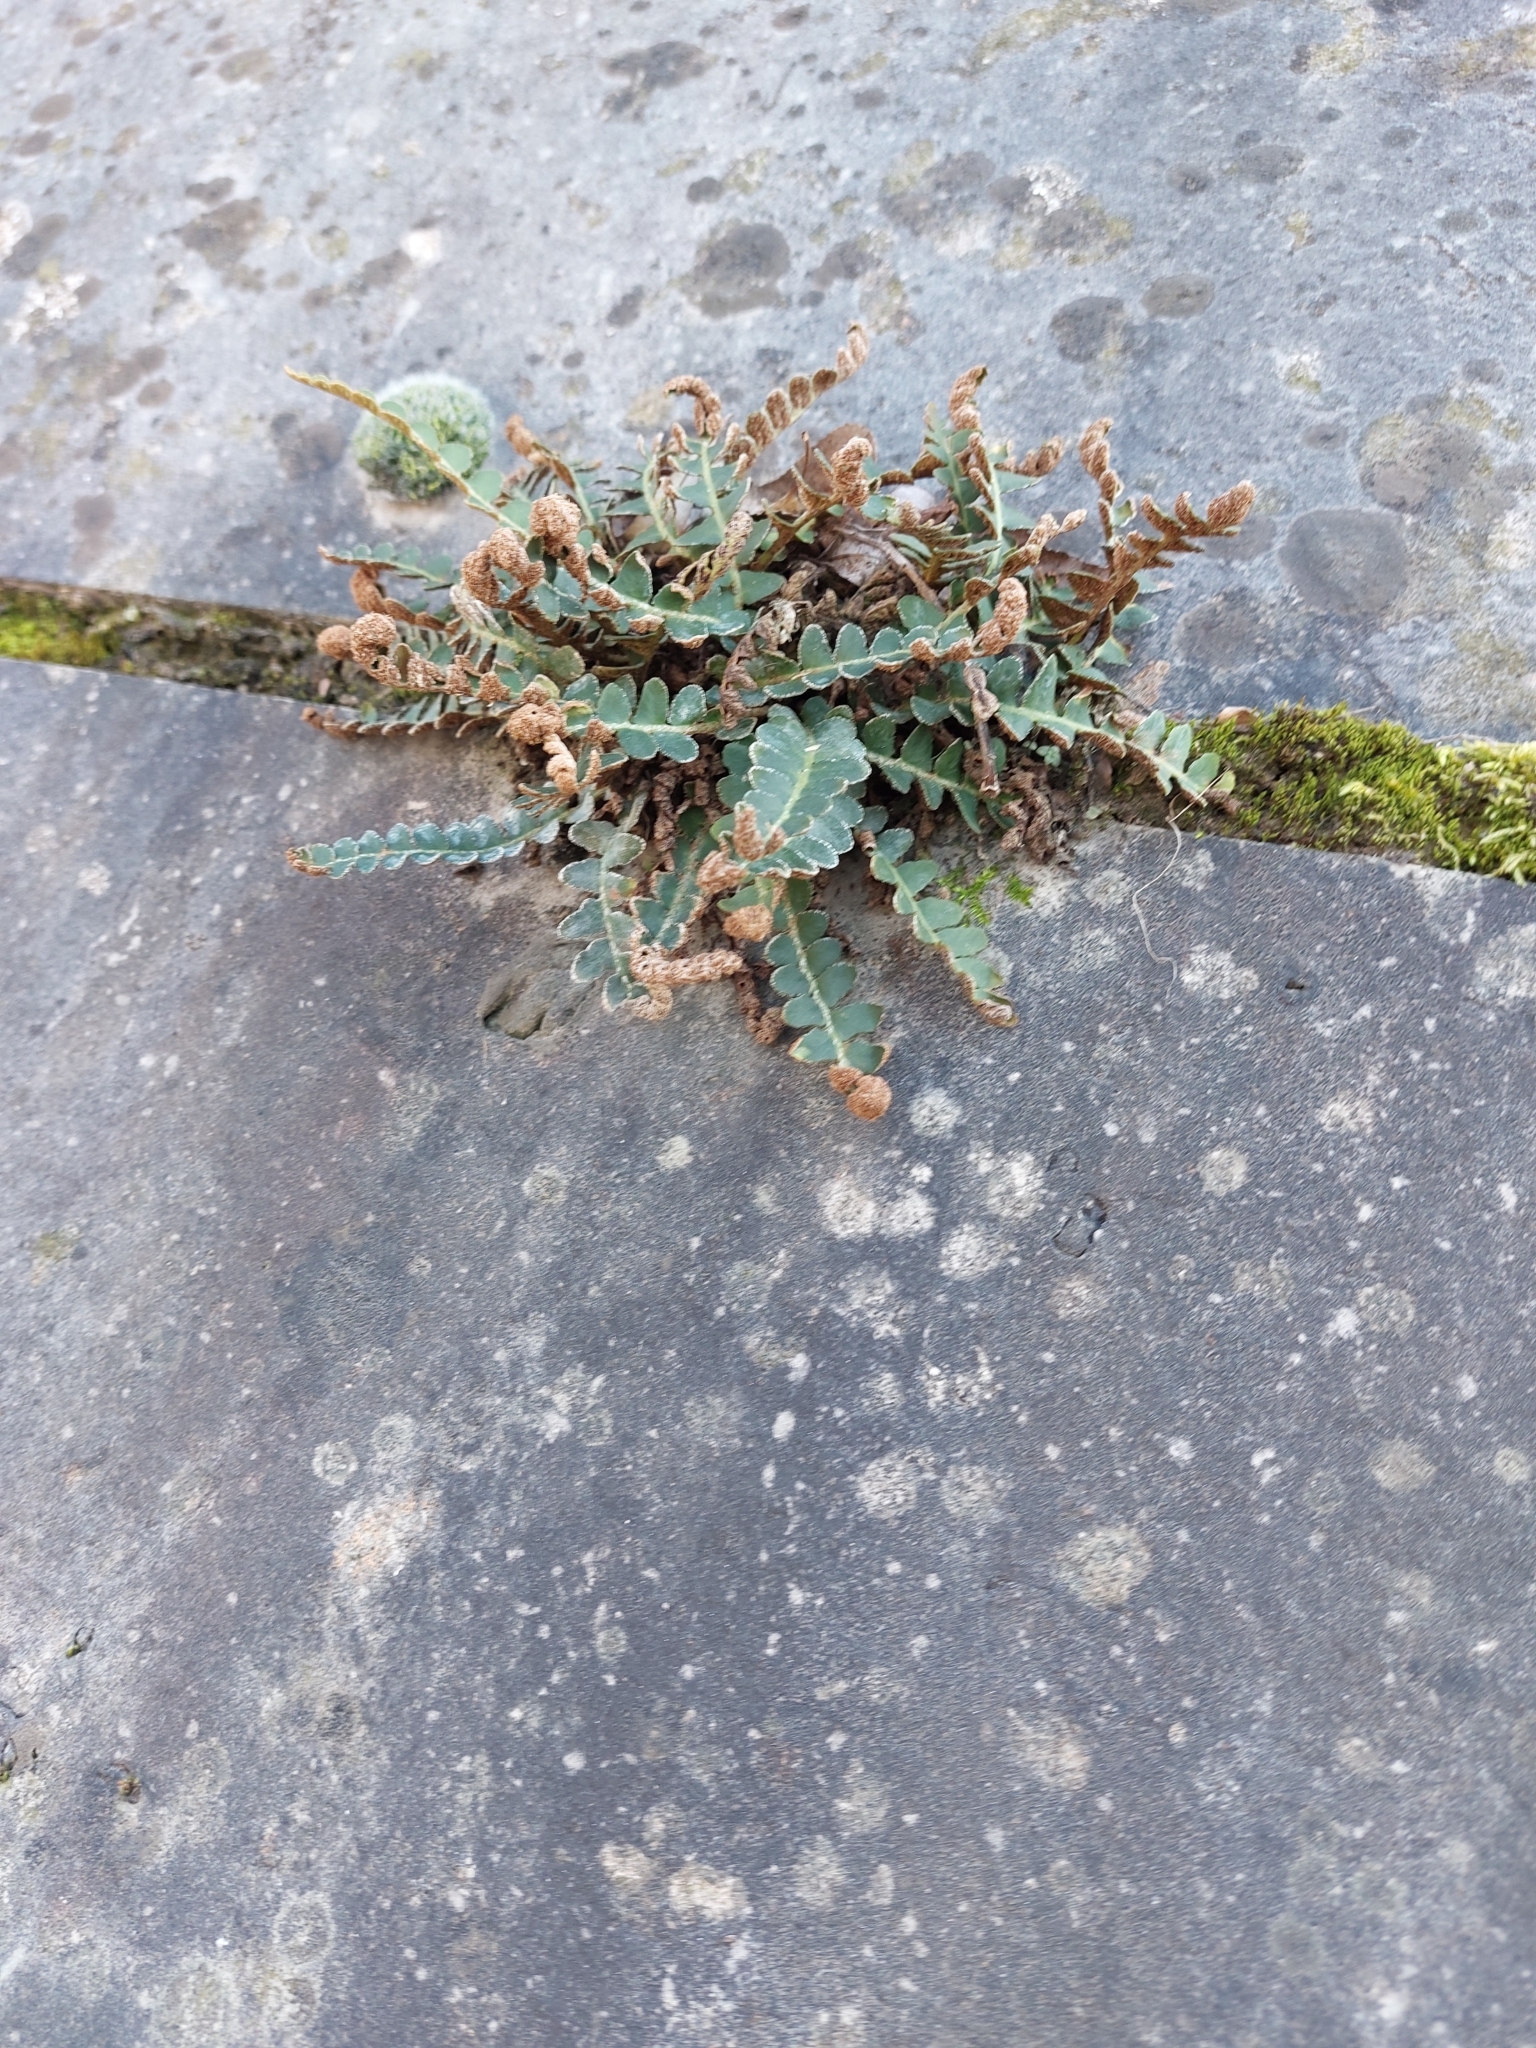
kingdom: Plantae
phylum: Tracheophyta
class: Polypodiopsida
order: Polypodiales
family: Aspleniaceae
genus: Asplenium
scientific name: Asplenium ceterach
